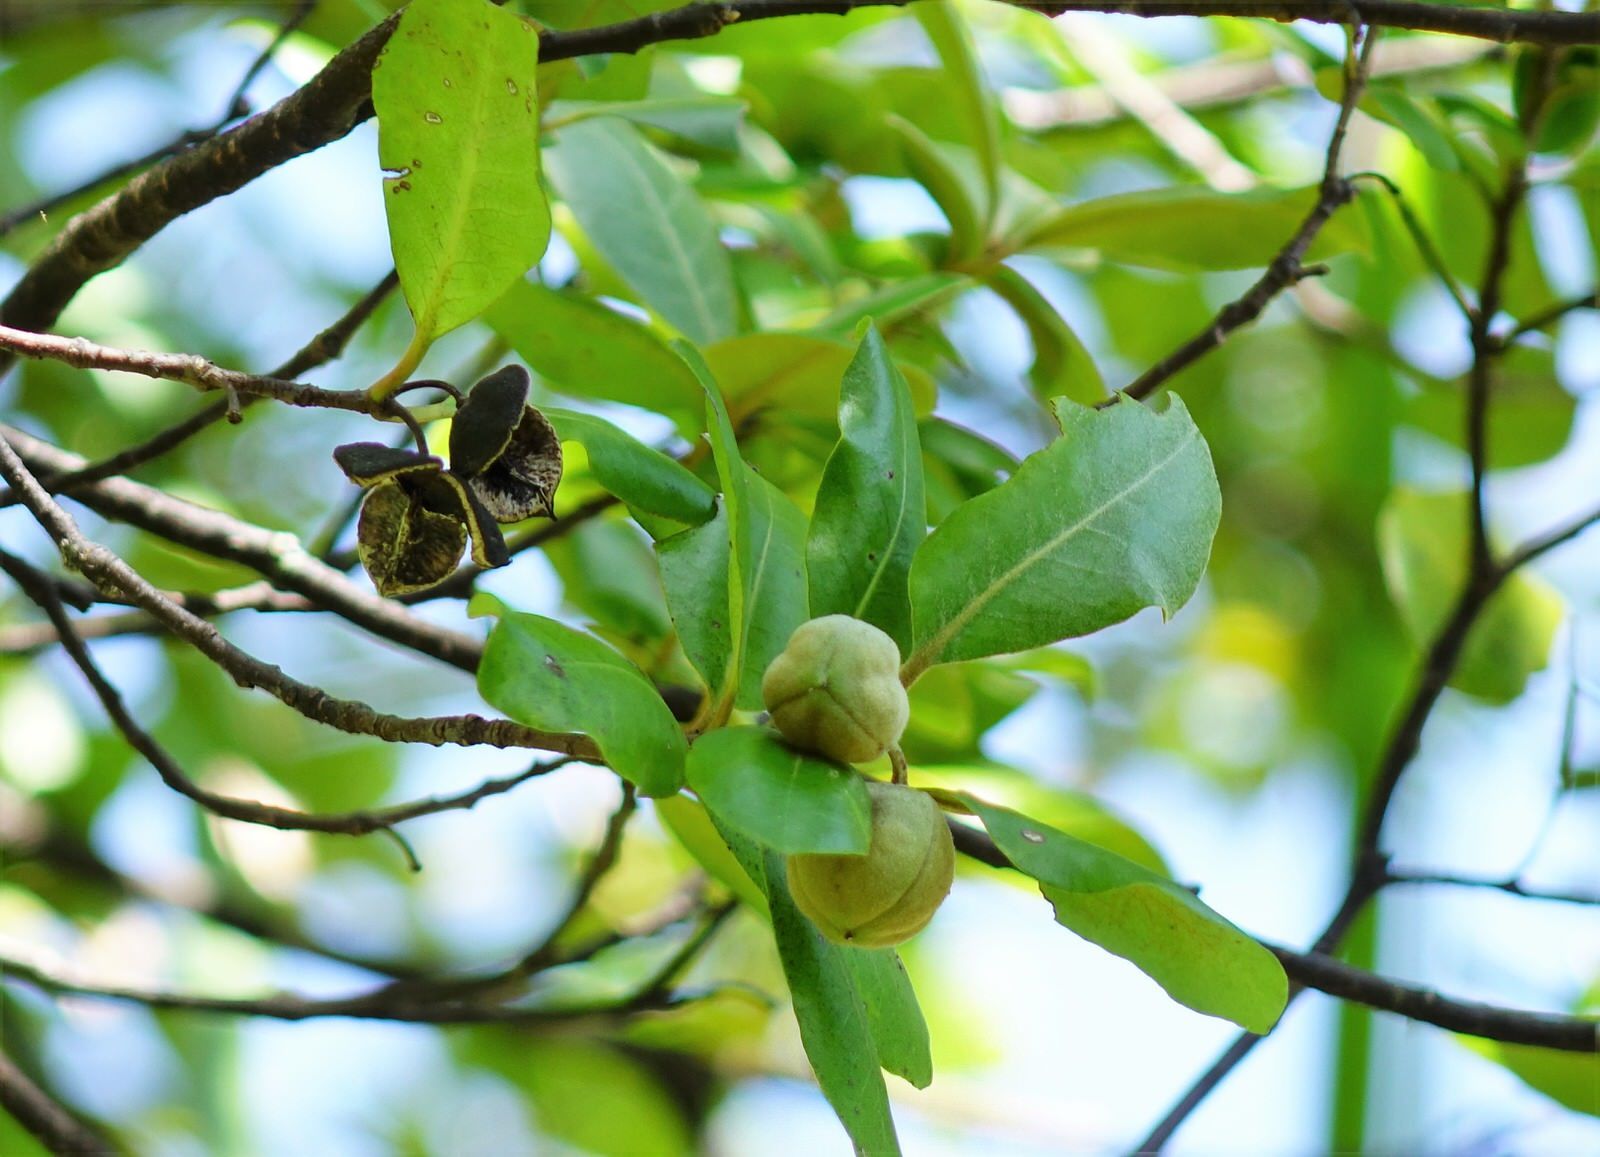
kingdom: Plantae
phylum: Tracheophyta
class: Magnoliopsida
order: Apiales
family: Pittosporaceae
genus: Pittosporum
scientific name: Pittosporum ellipticum
